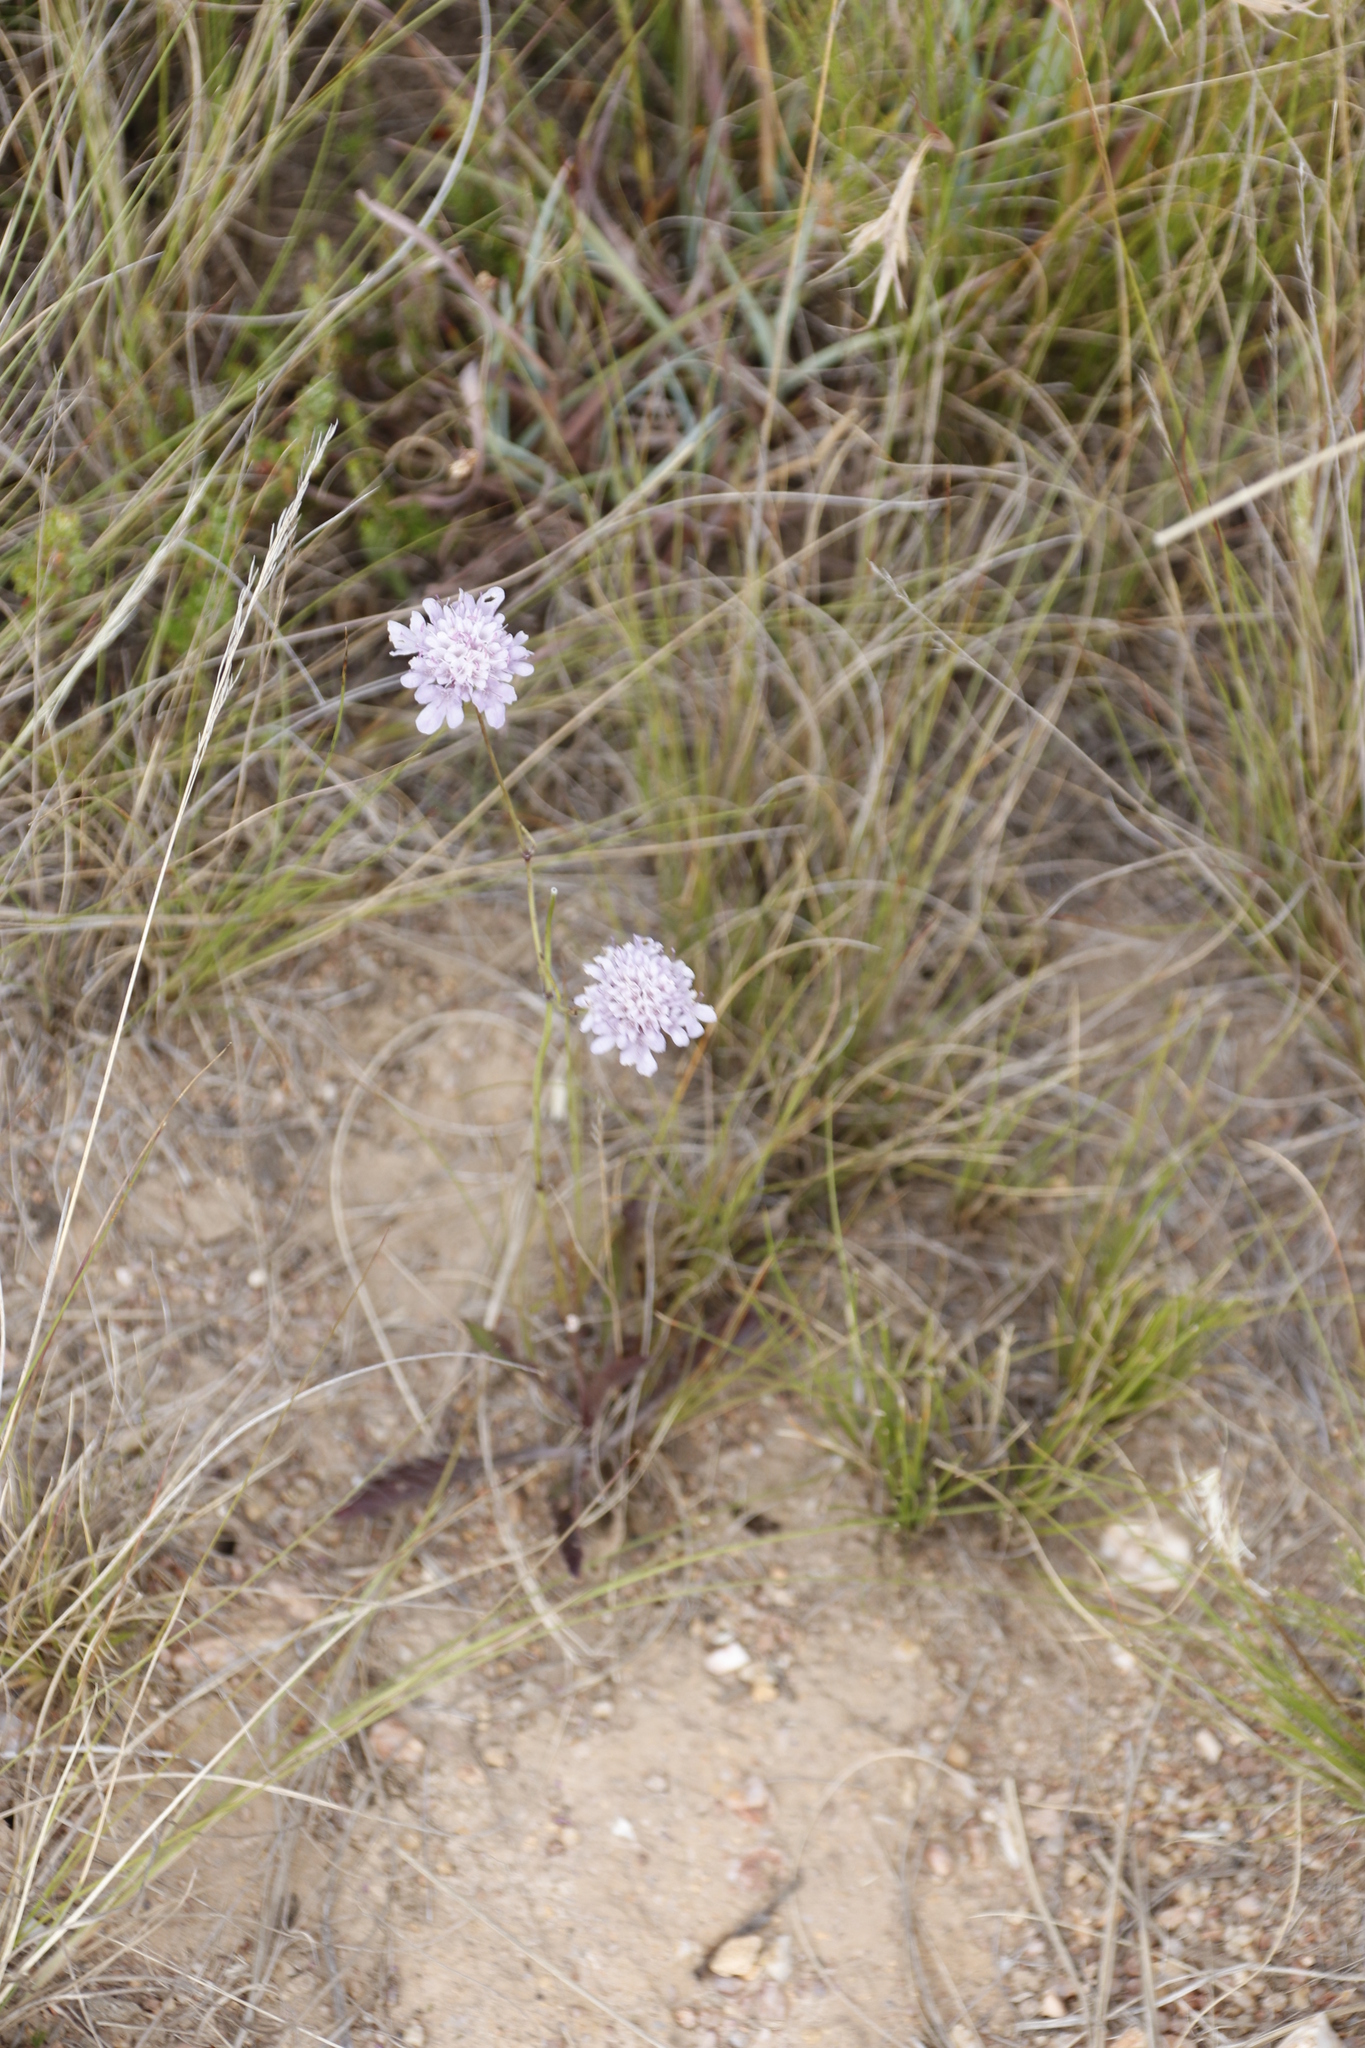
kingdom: Plantae
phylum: Tracheophyta
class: Magnoliopsida
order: Dipsacales
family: Caprifoliaceae
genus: Scabiosa
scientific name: Scabiosa columbaria
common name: Small scabious
